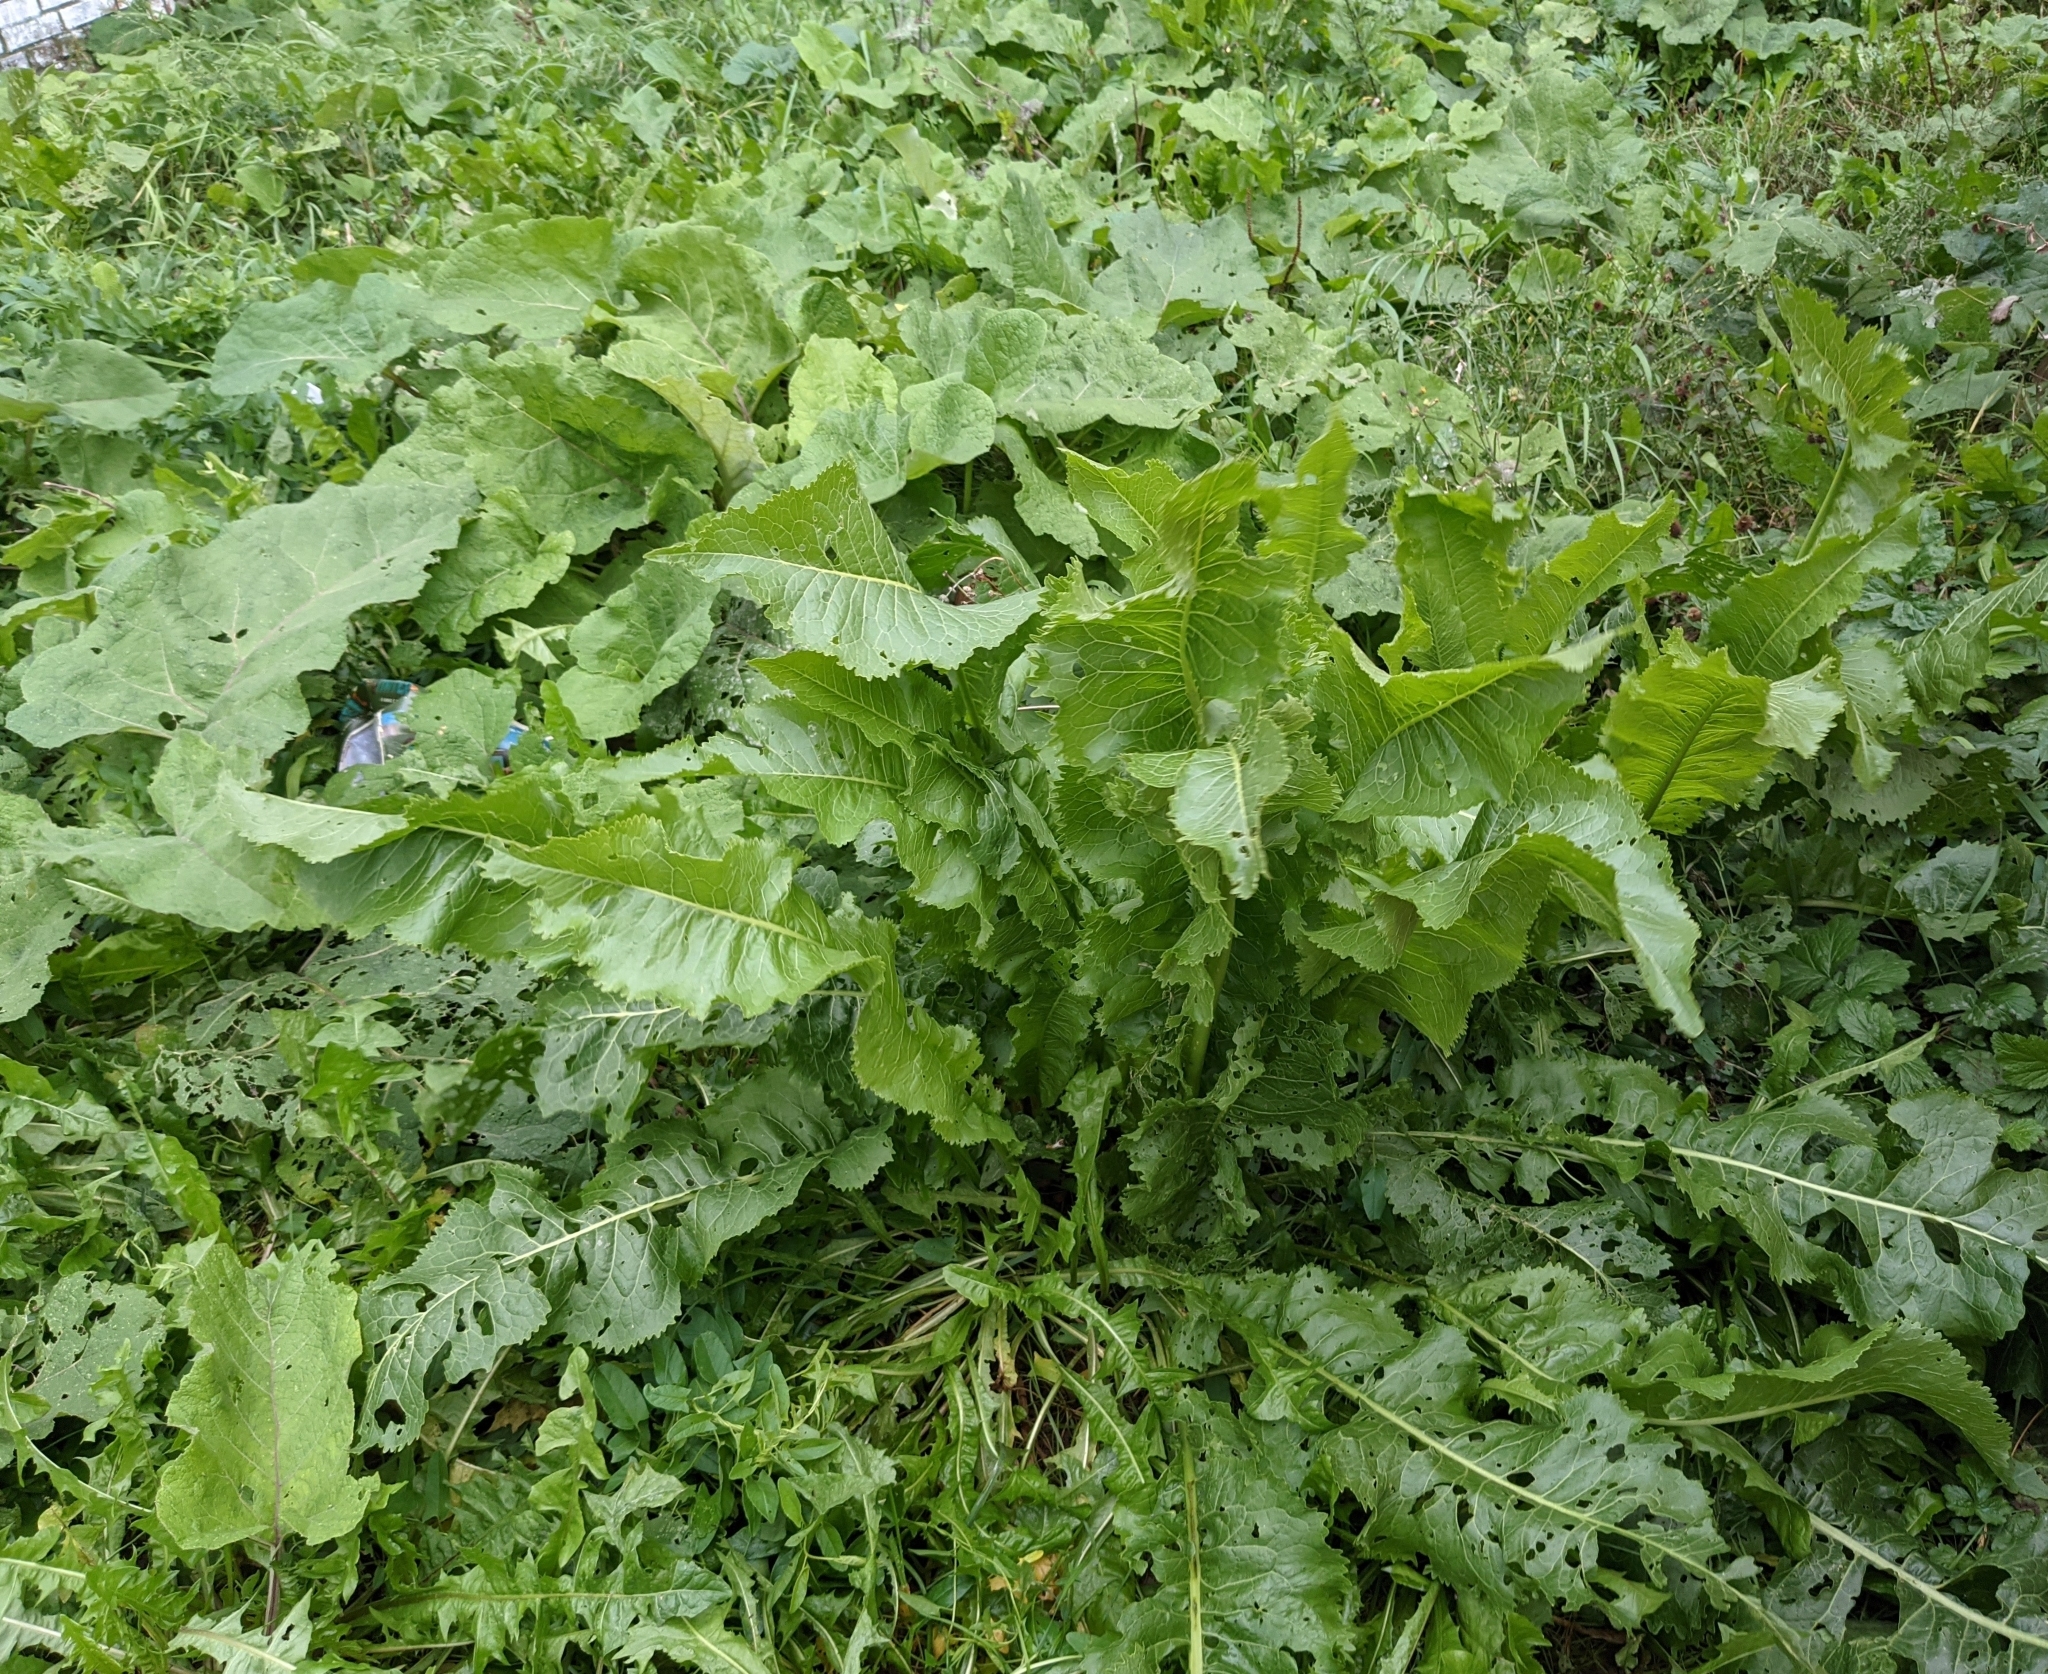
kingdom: Plantae
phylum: Tracheophyta
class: Magnoliopsida
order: Brassicales
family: Brassicaceae
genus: Armoracia
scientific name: Armoracia rusticana
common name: Horseradish
